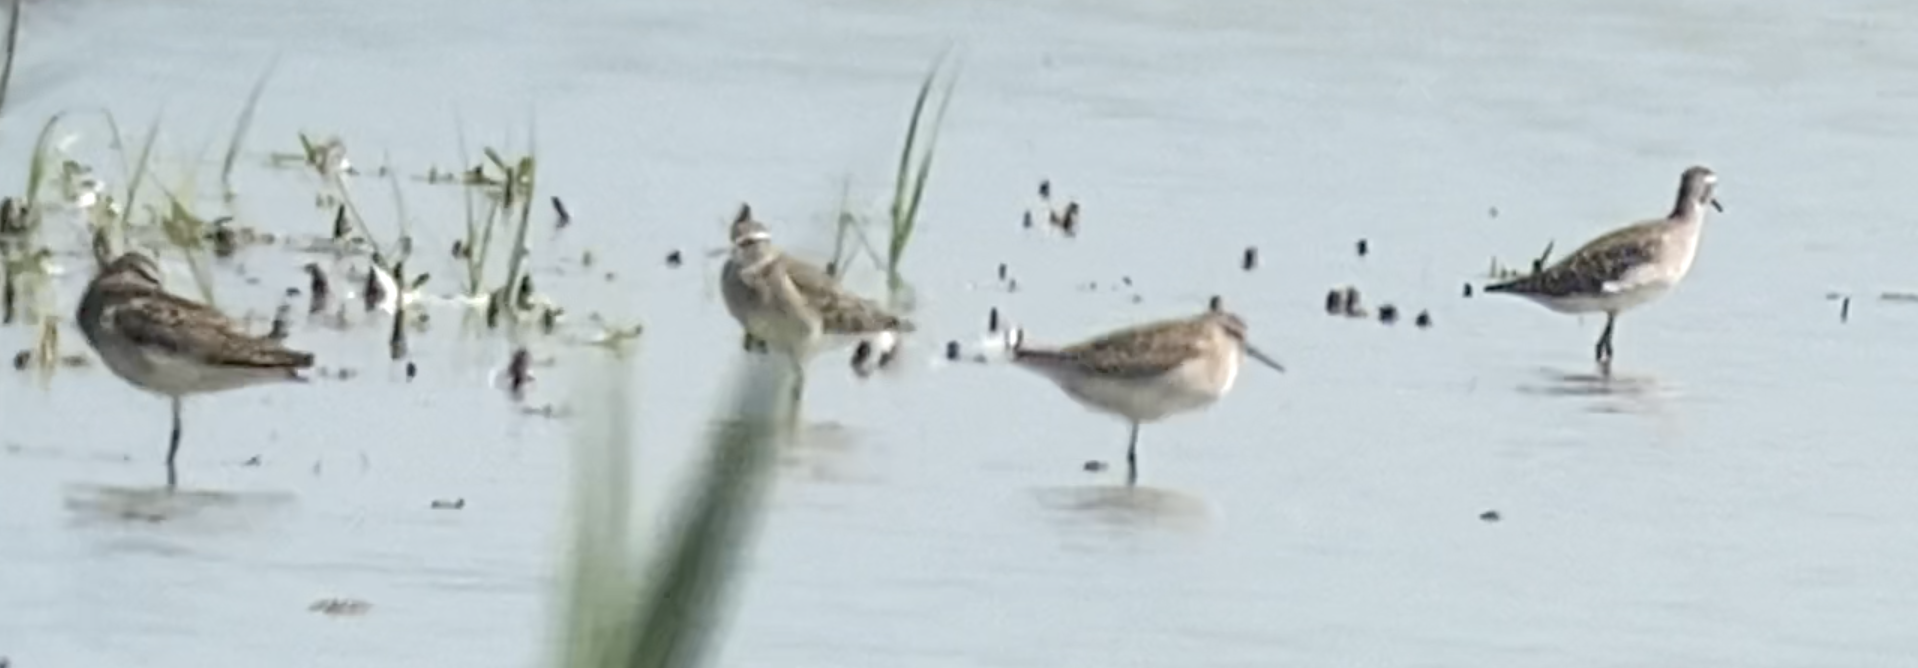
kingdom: Animalia
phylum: Chordata
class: Aves
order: Charadriiformes
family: Scolopacidae
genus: Tringa
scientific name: Tringa glareola
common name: Wood sandpiper
